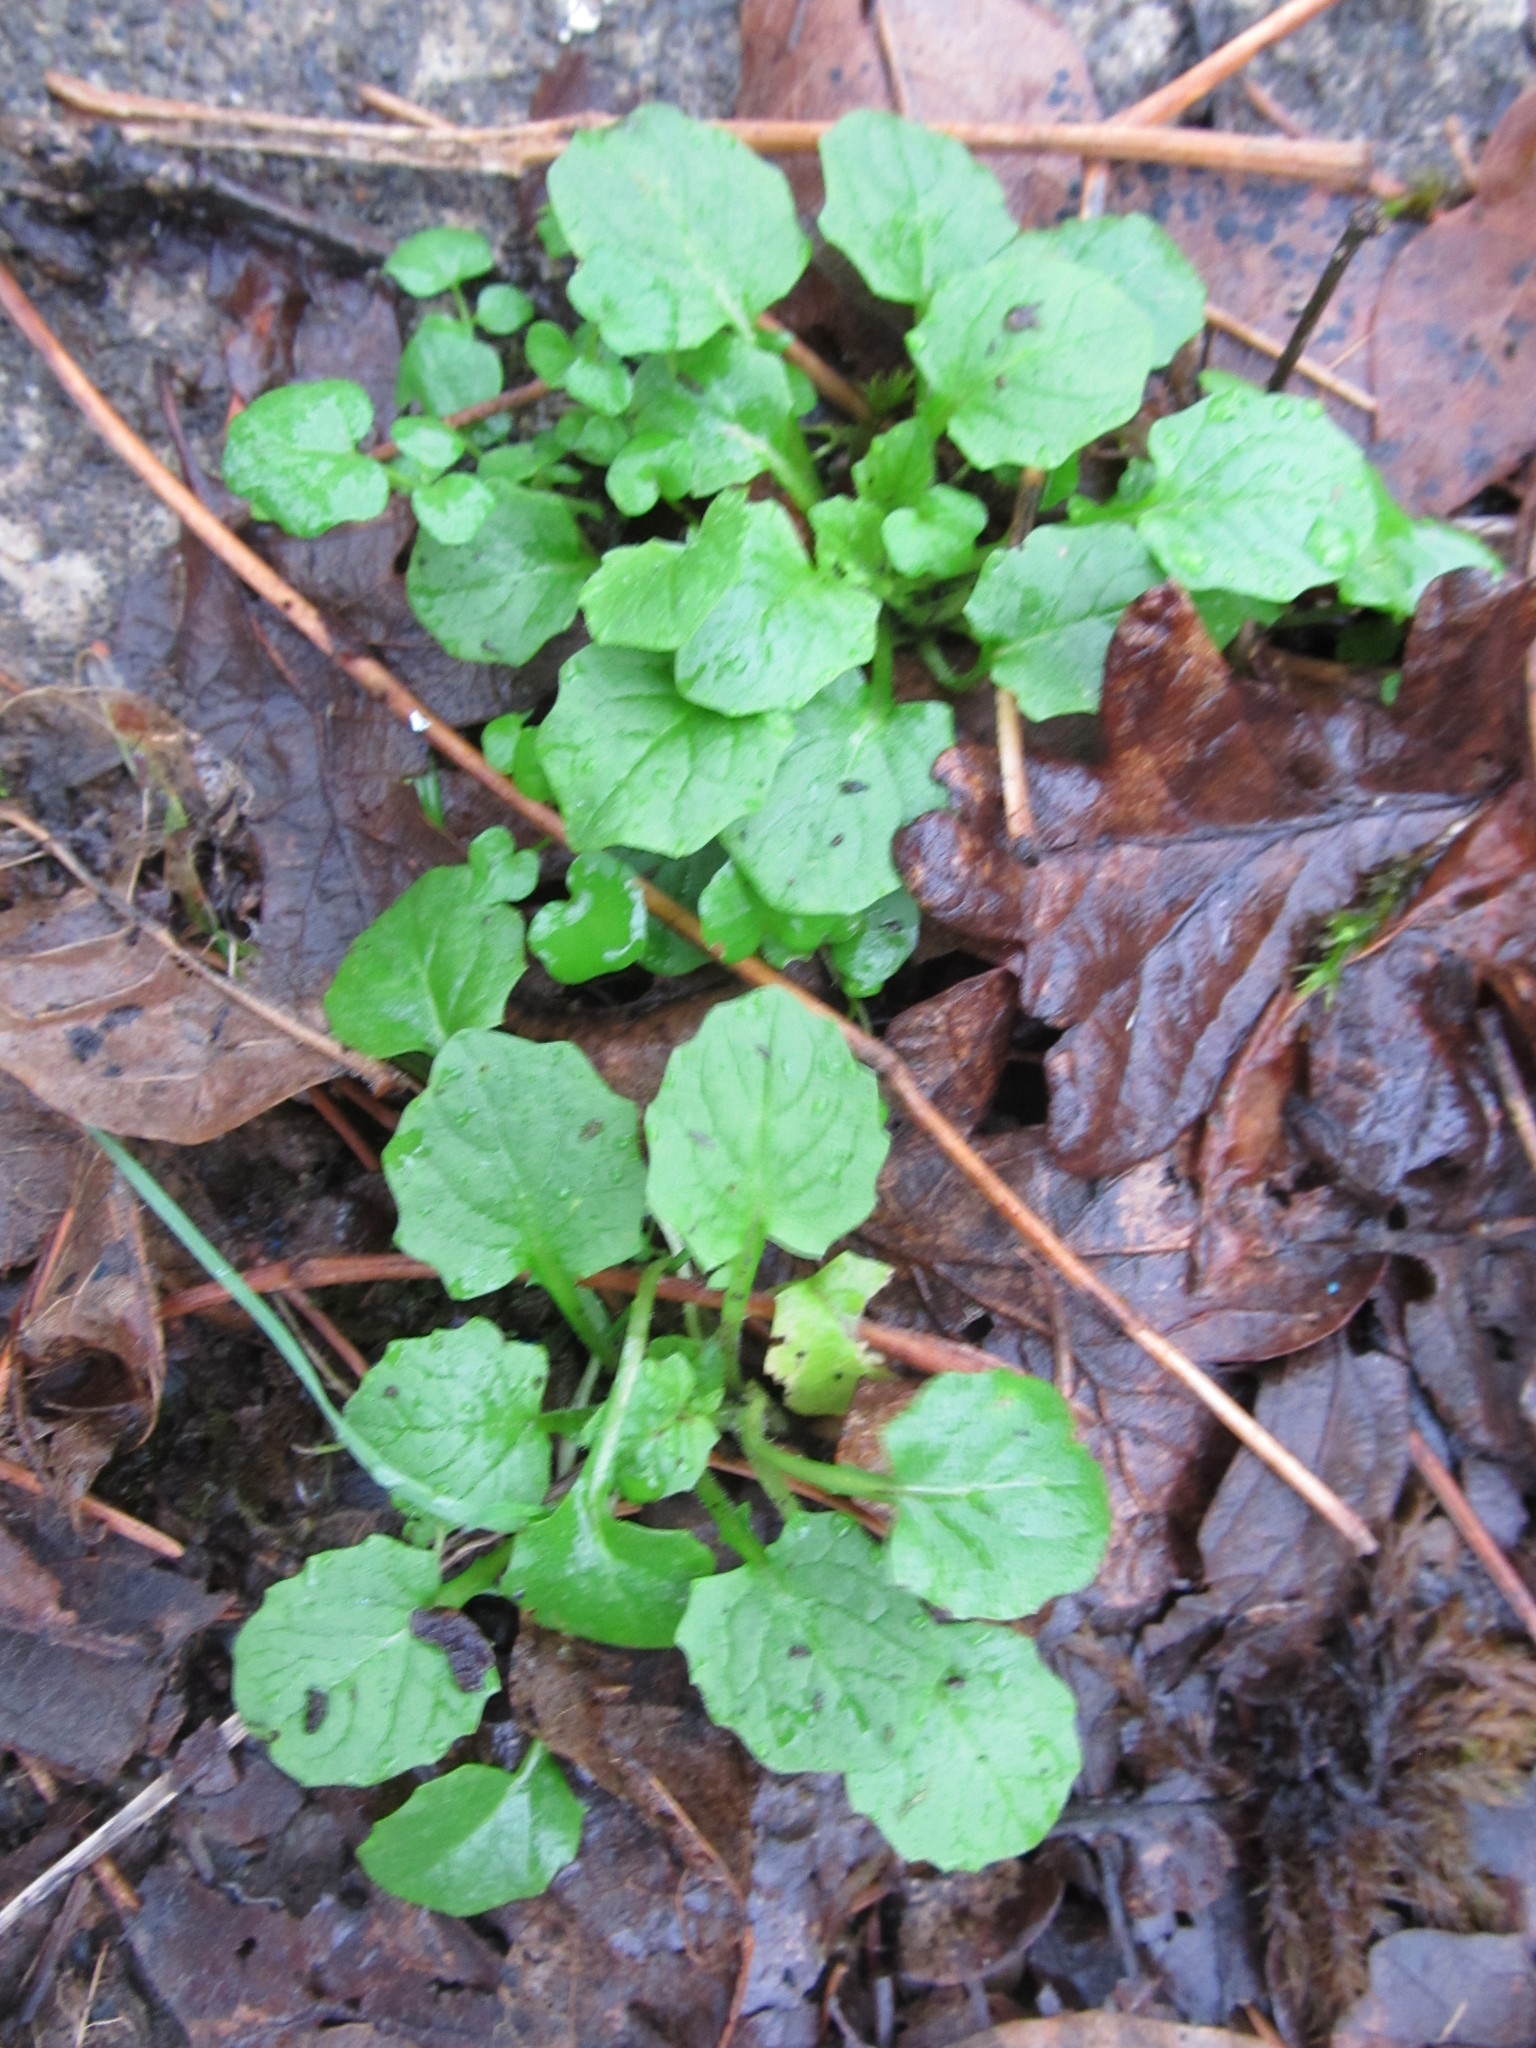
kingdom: Plantae
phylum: Tracheophyta
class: Magnoliopsida
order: Asterales
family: Asteraceae
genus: Lapsana
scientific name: Lapsana communis
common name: Nipplewort
